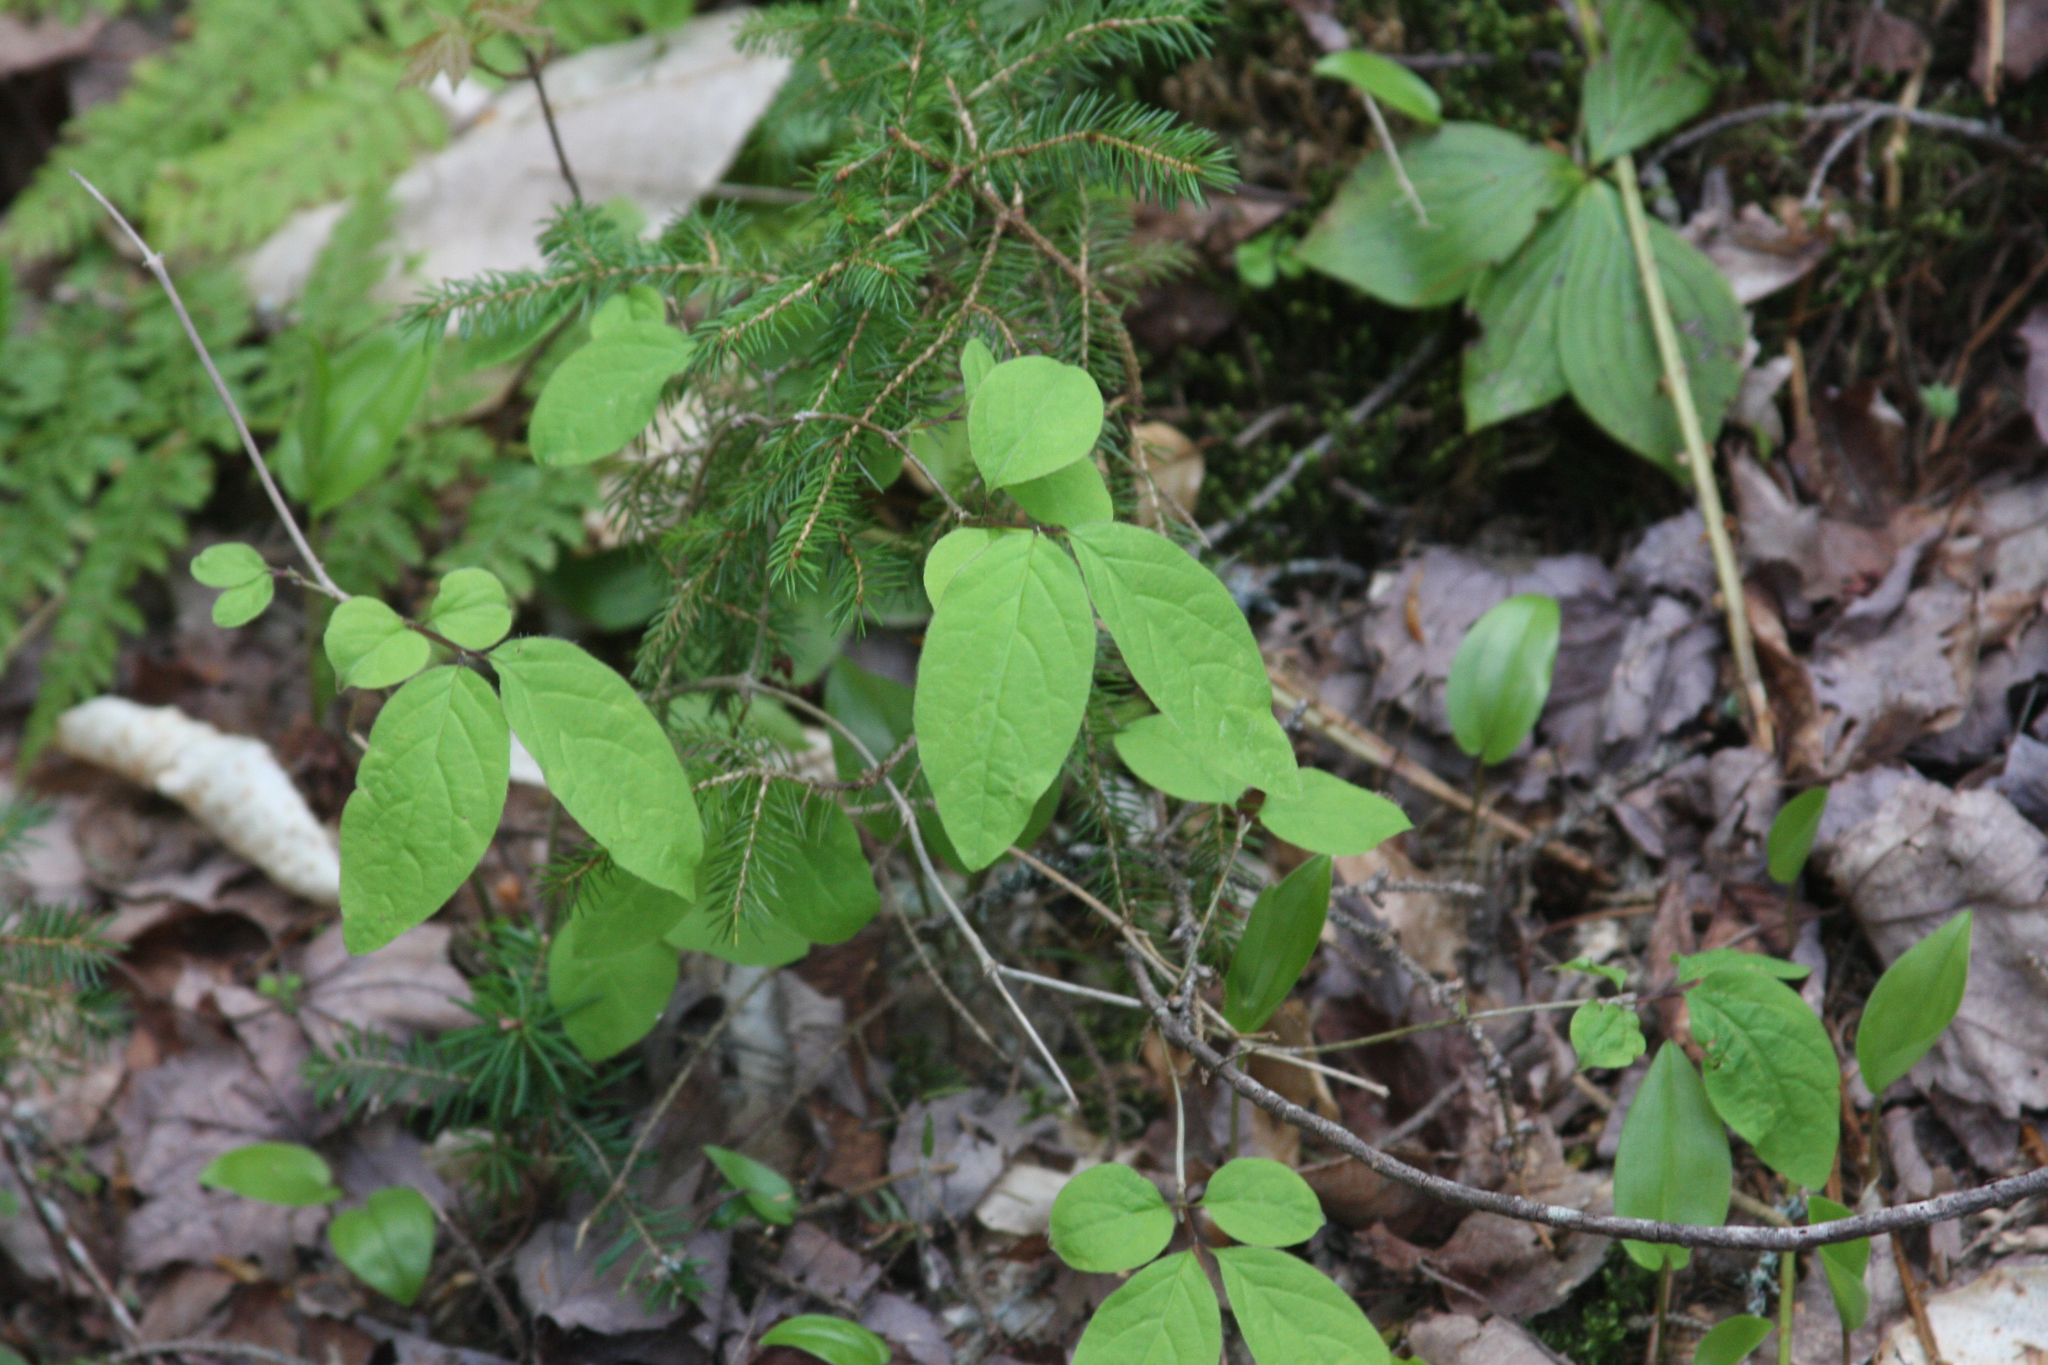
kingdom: Plantae
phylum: Tracheophyta
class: Magnoliopsida
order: Cornales
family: Cornaceae
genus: Cornus
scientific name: Cornus canadensis
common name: Creeping dogwood
